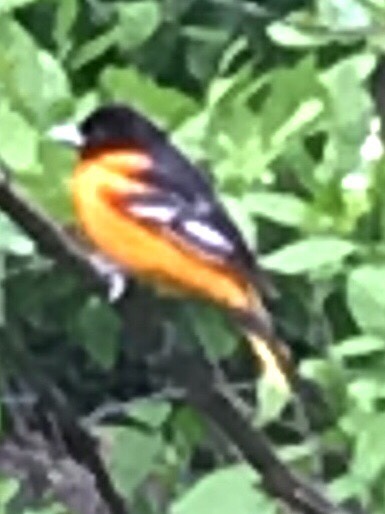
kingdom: Animalia
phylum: Chordata
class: Aves
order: Passeriformes
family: Icteridae
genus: Icterus
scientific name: Icterus galbula
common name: Baltimore oriole
